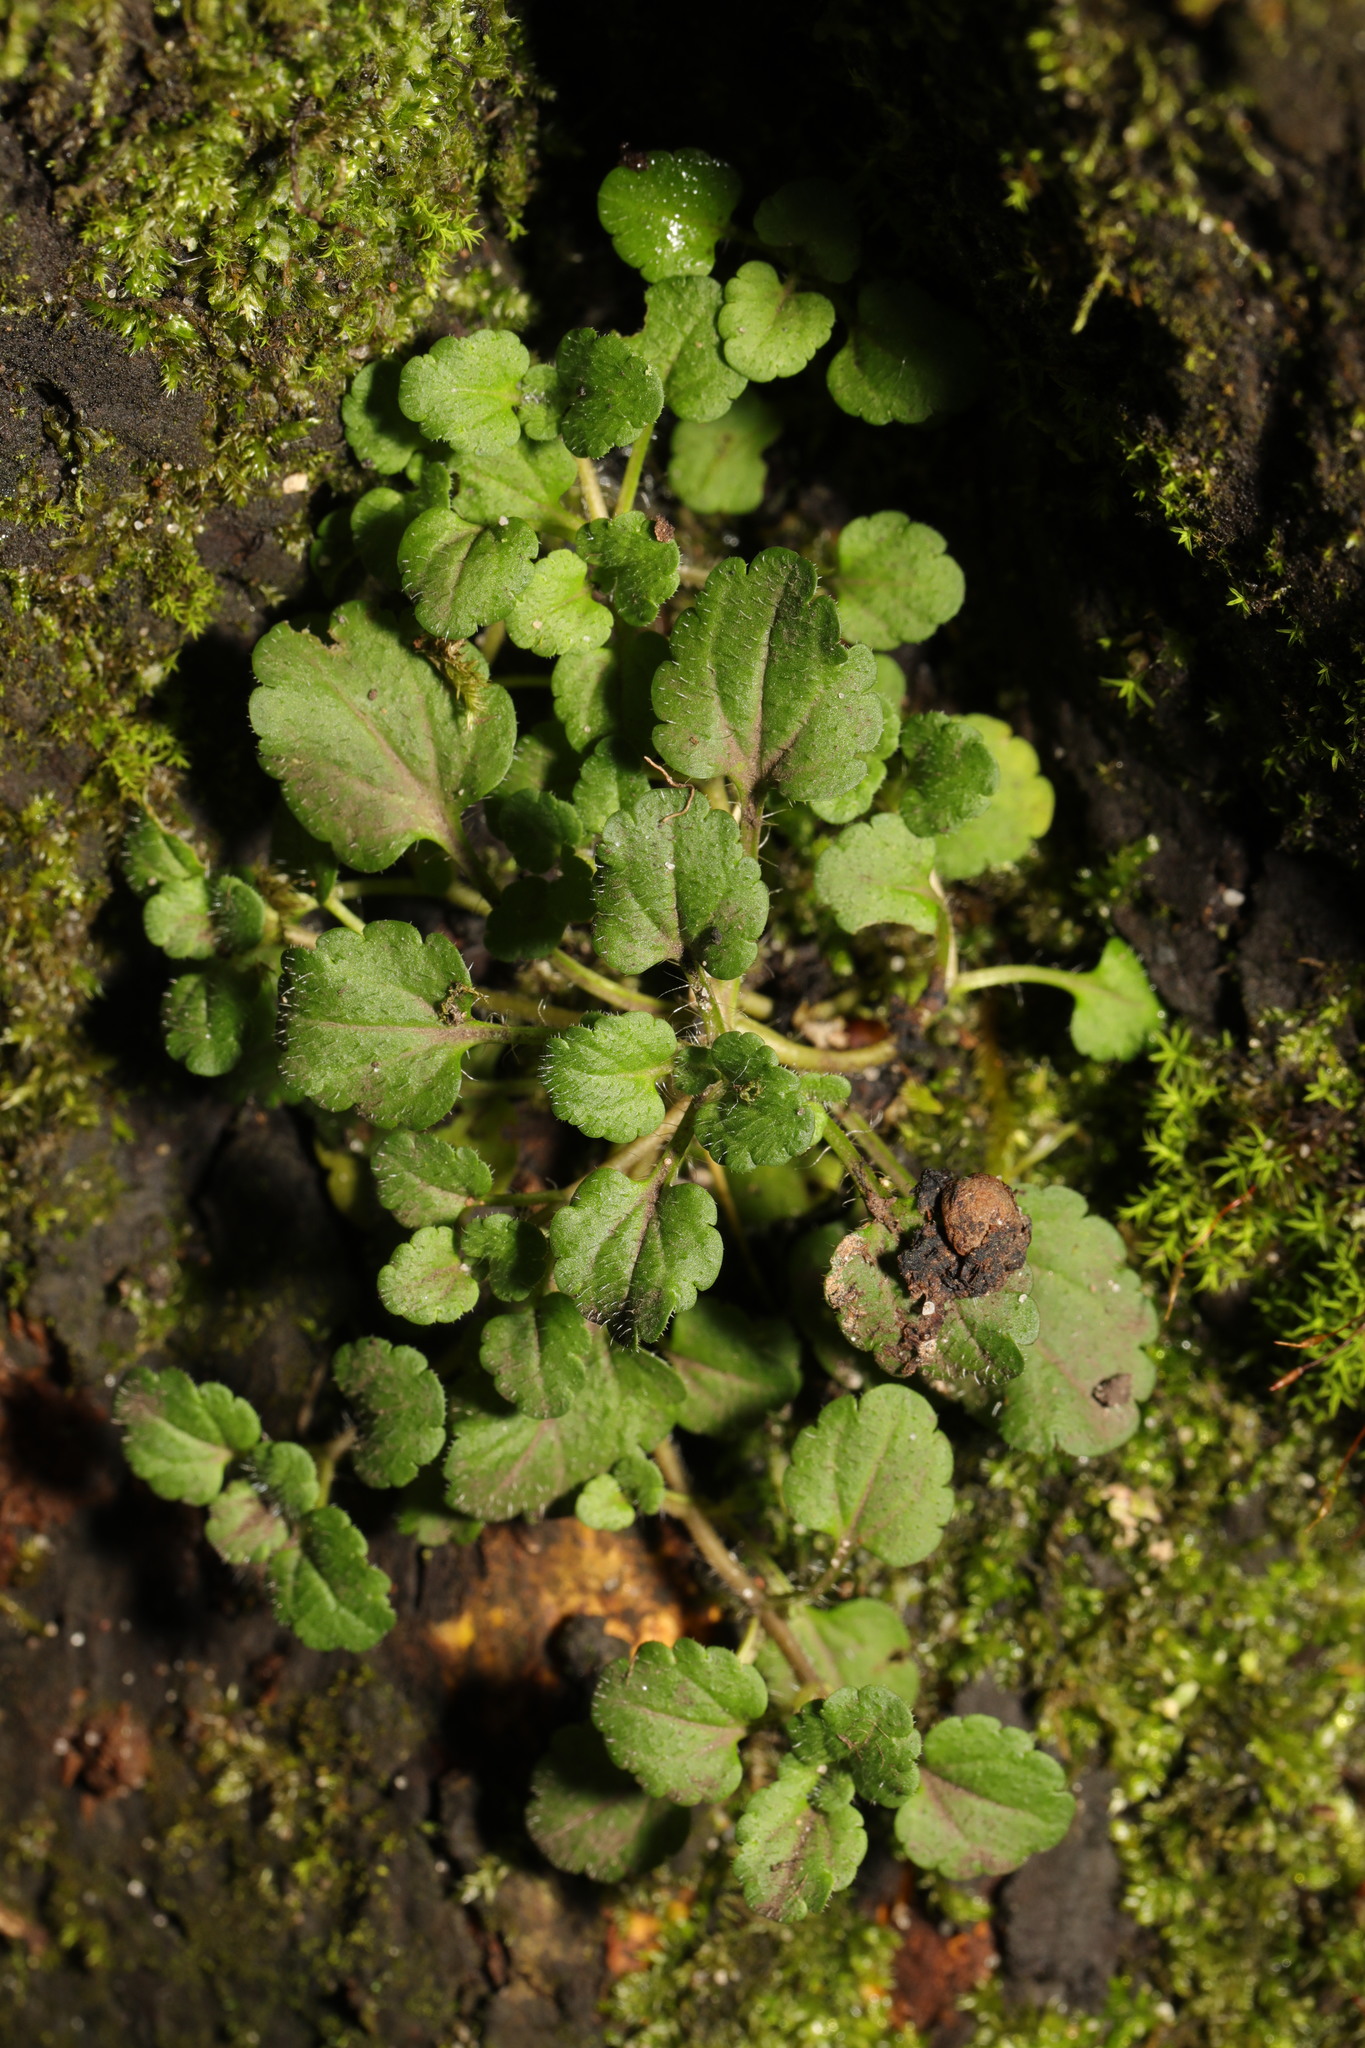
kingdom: Plantae
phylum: Tracheophyta
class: Magnoliopsida
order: Lamiales
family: Plantaginaceae
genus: Veronica
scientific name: Veronica persica
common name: Common field-speedwell
